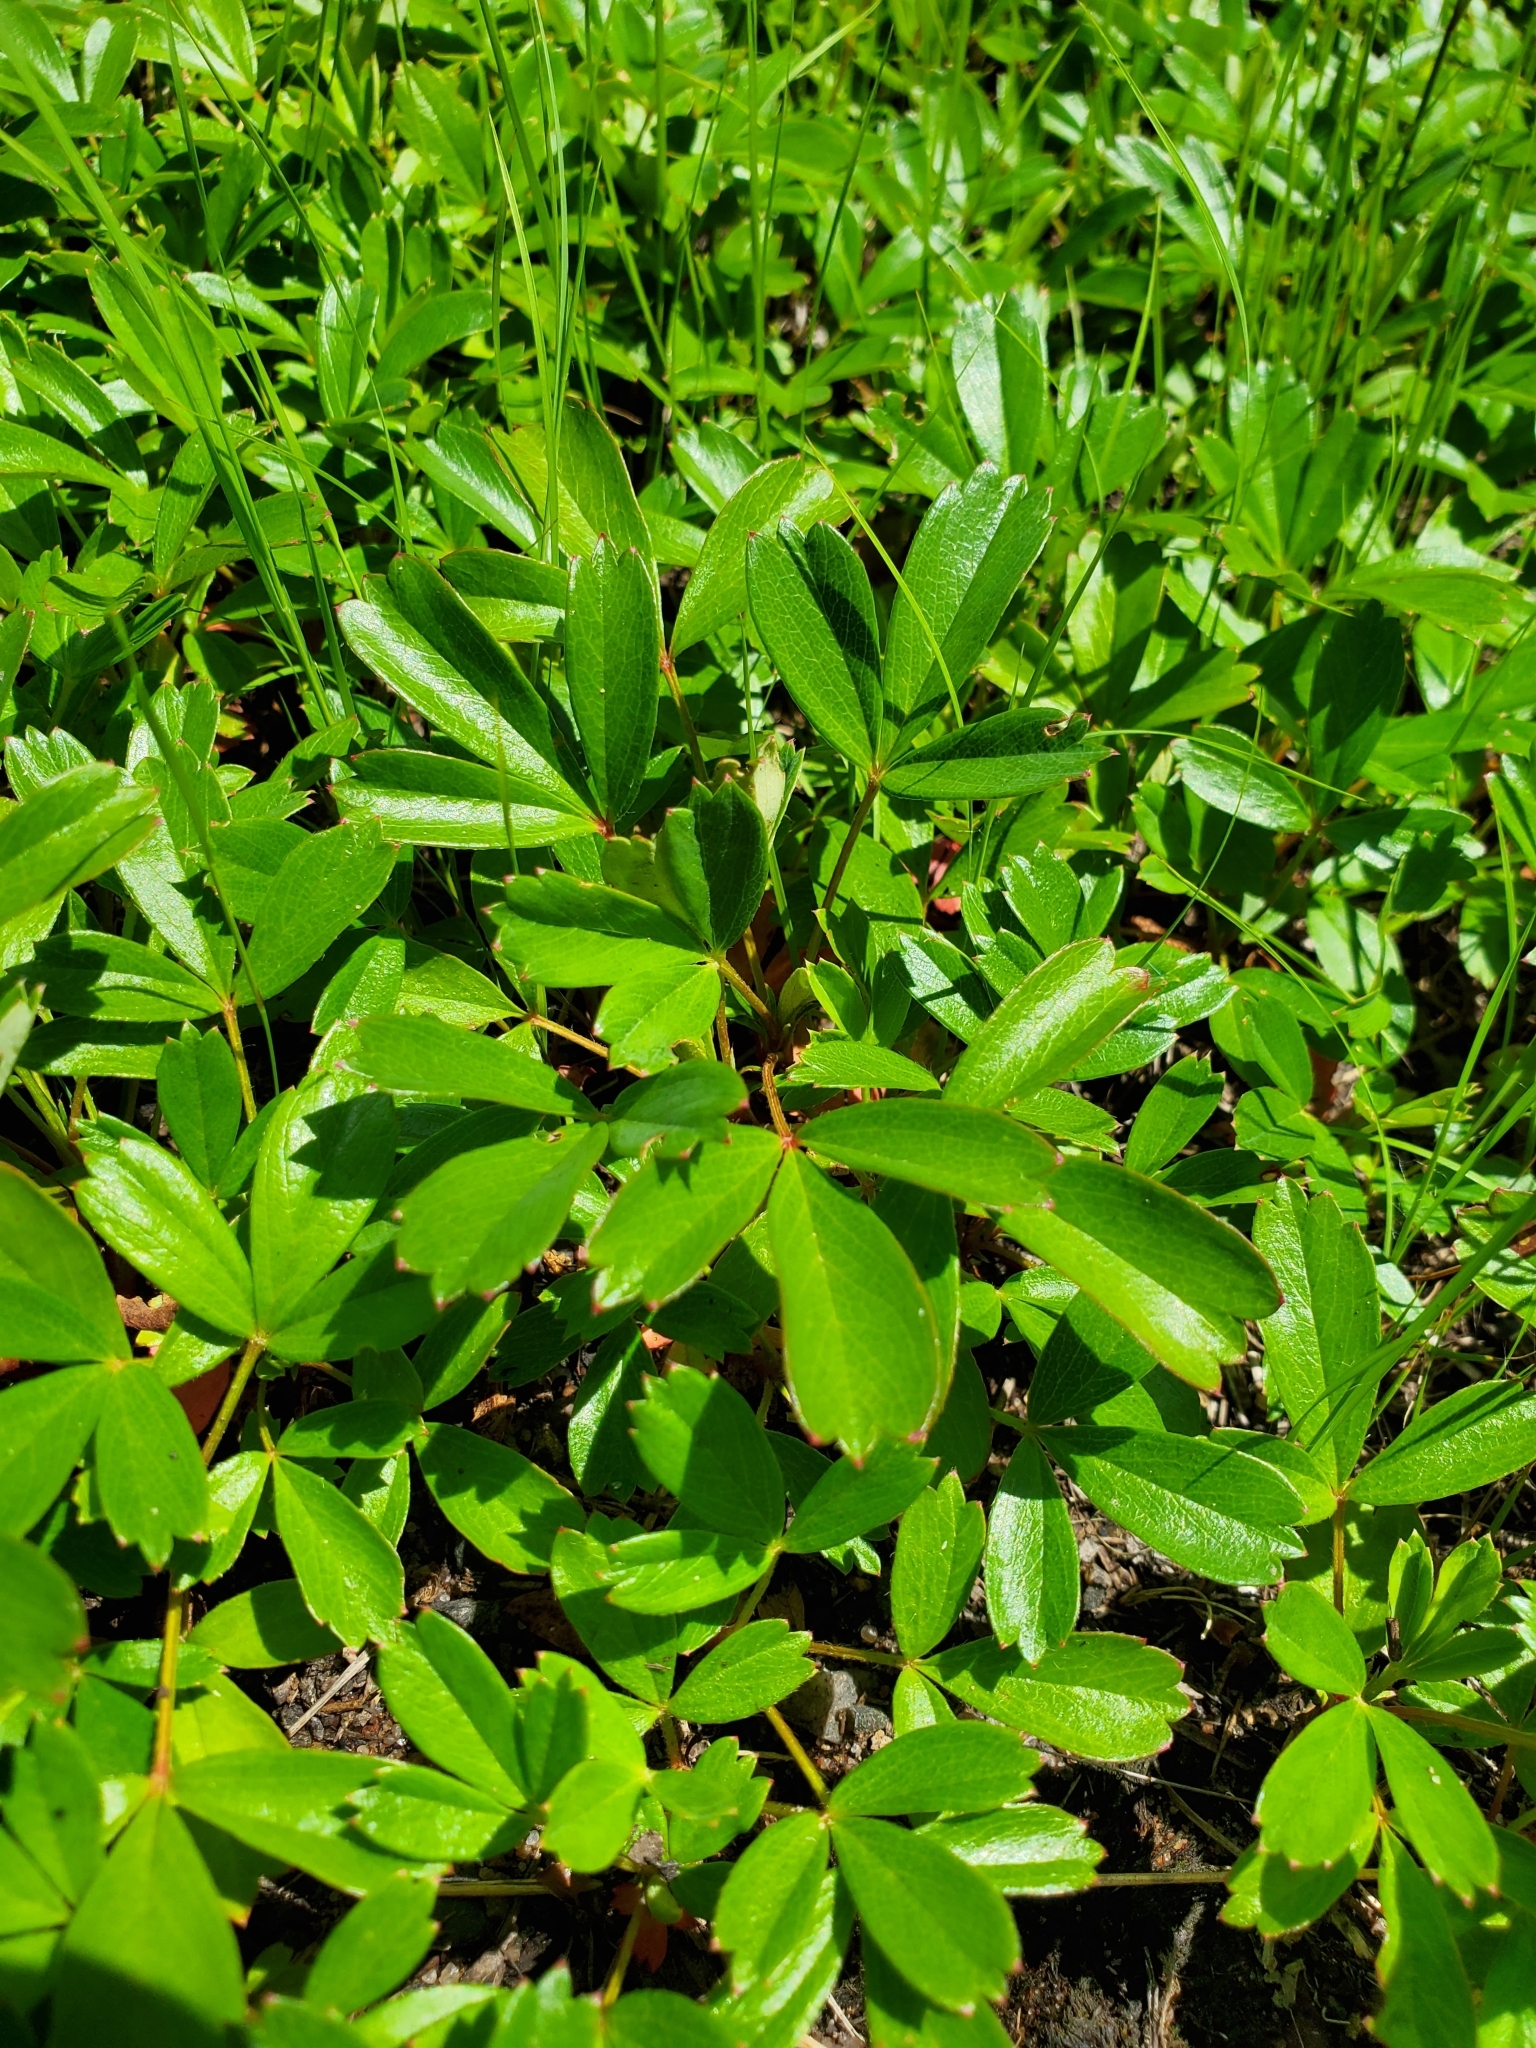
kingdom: Plantae
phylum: Tracheophyta
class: Magnoliopsida
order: Rosales
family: Rosaceae
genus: Sibbaldia
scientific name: Sibbaldia tridentata
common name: Three-toothed cinquefoil
